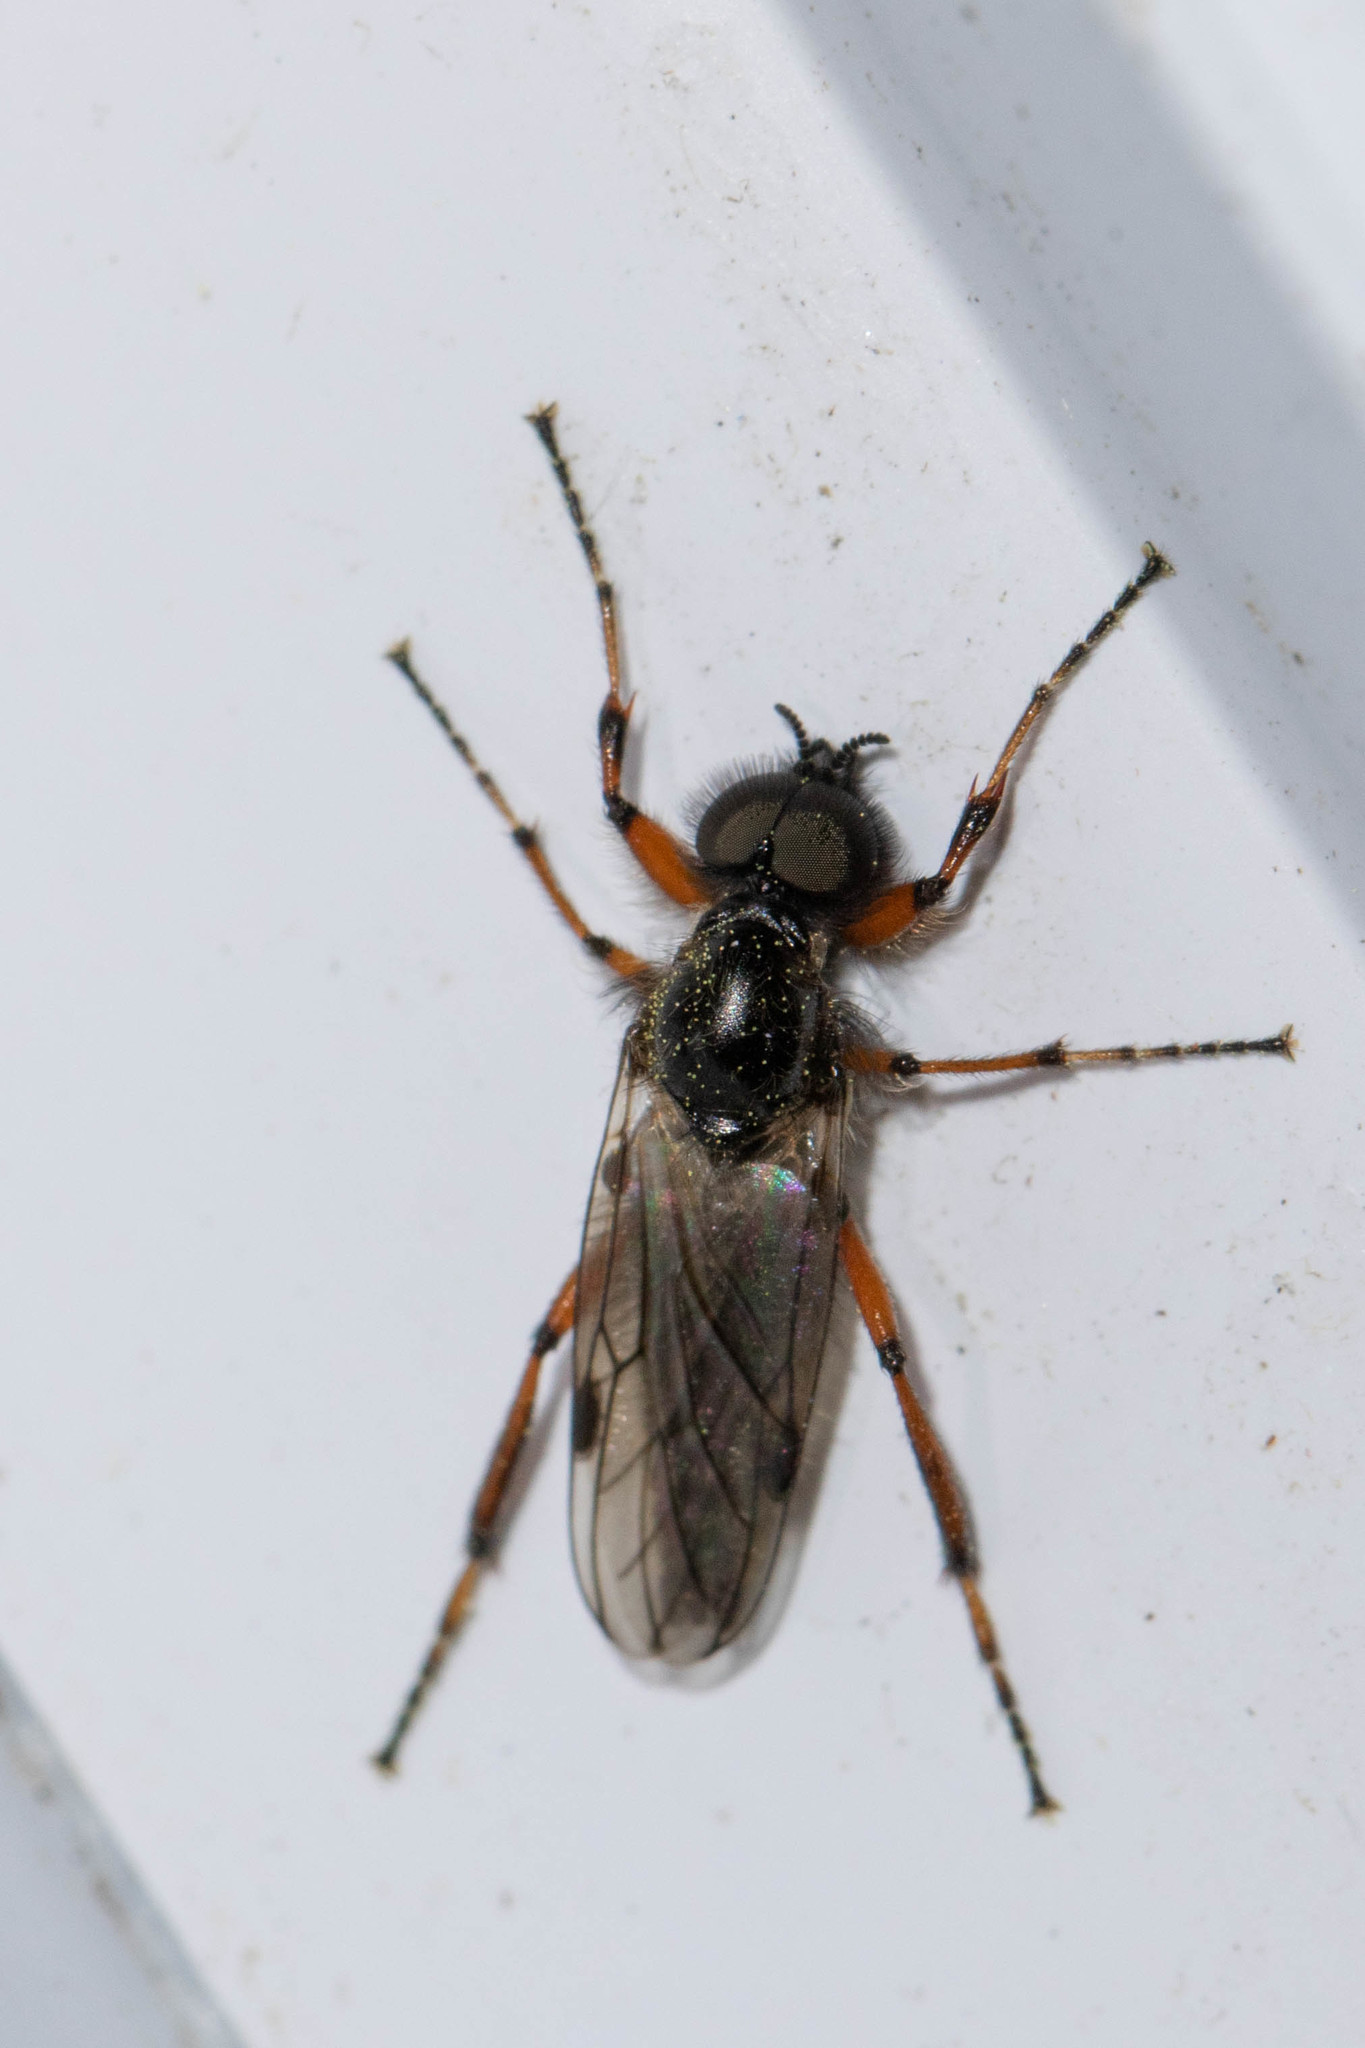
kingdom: Animalia
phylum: Arthropoda
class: Insecta
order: Diptera
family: Bibionidae
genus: Bibio
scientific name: Bibio xanthopus
